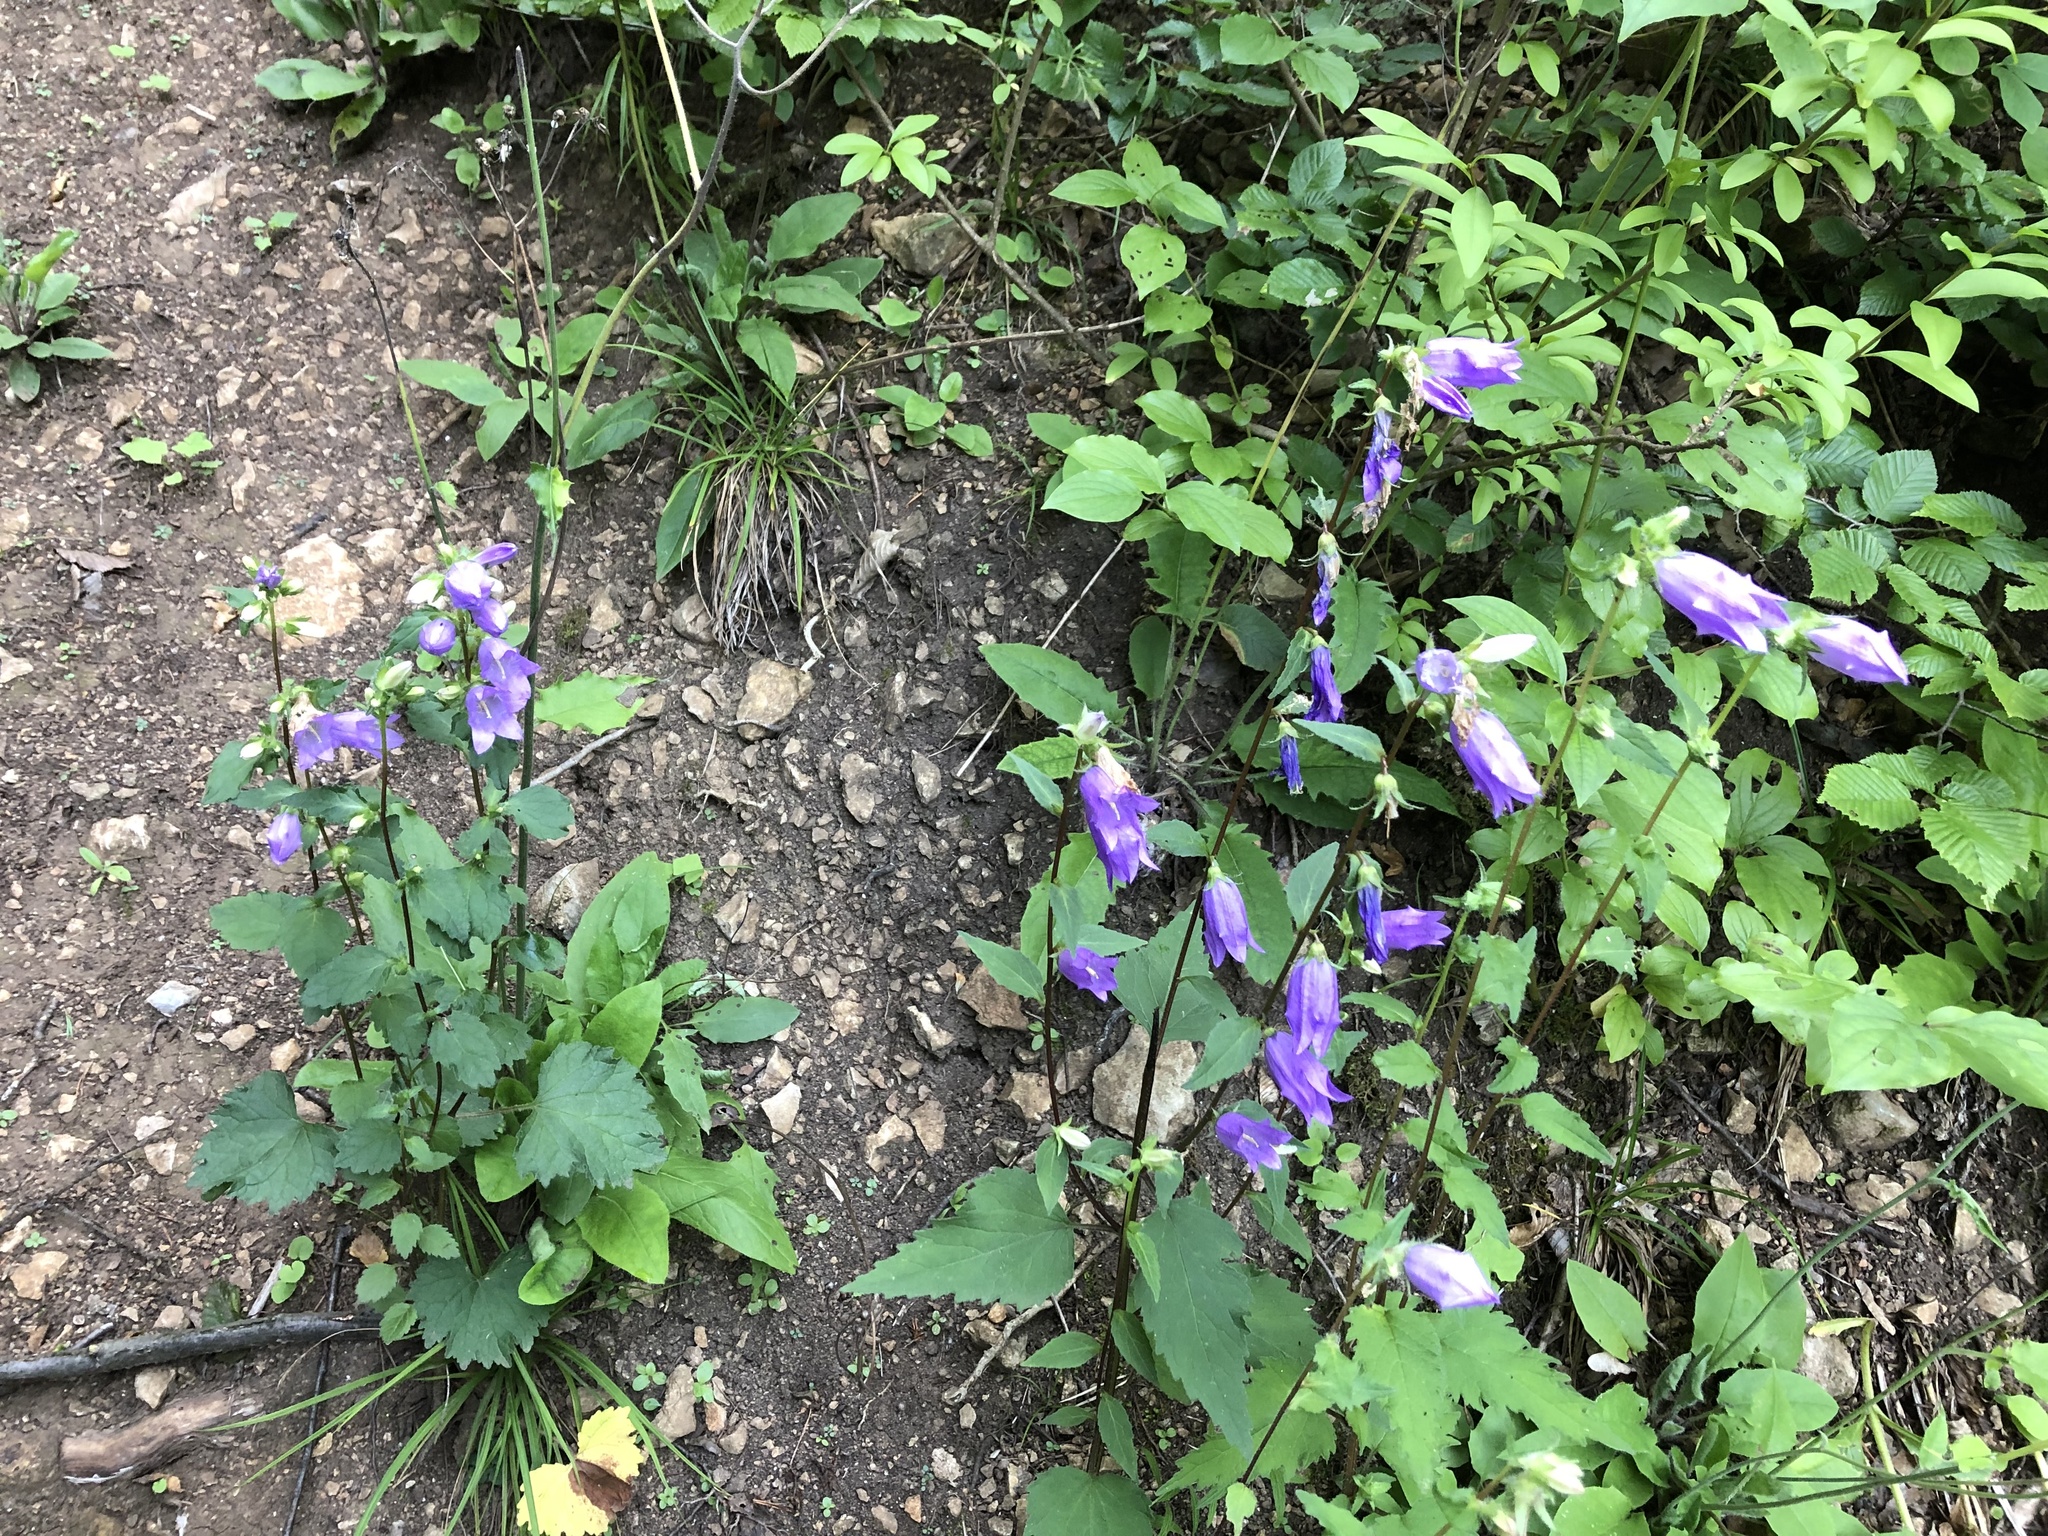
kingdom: Plantae
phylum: Tracheophyta
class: Magnoliopsida
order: Asterales
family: Campanulaceae
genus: Campanula
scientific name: Campanula trachelium
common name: Nettle-leaved bellflower
